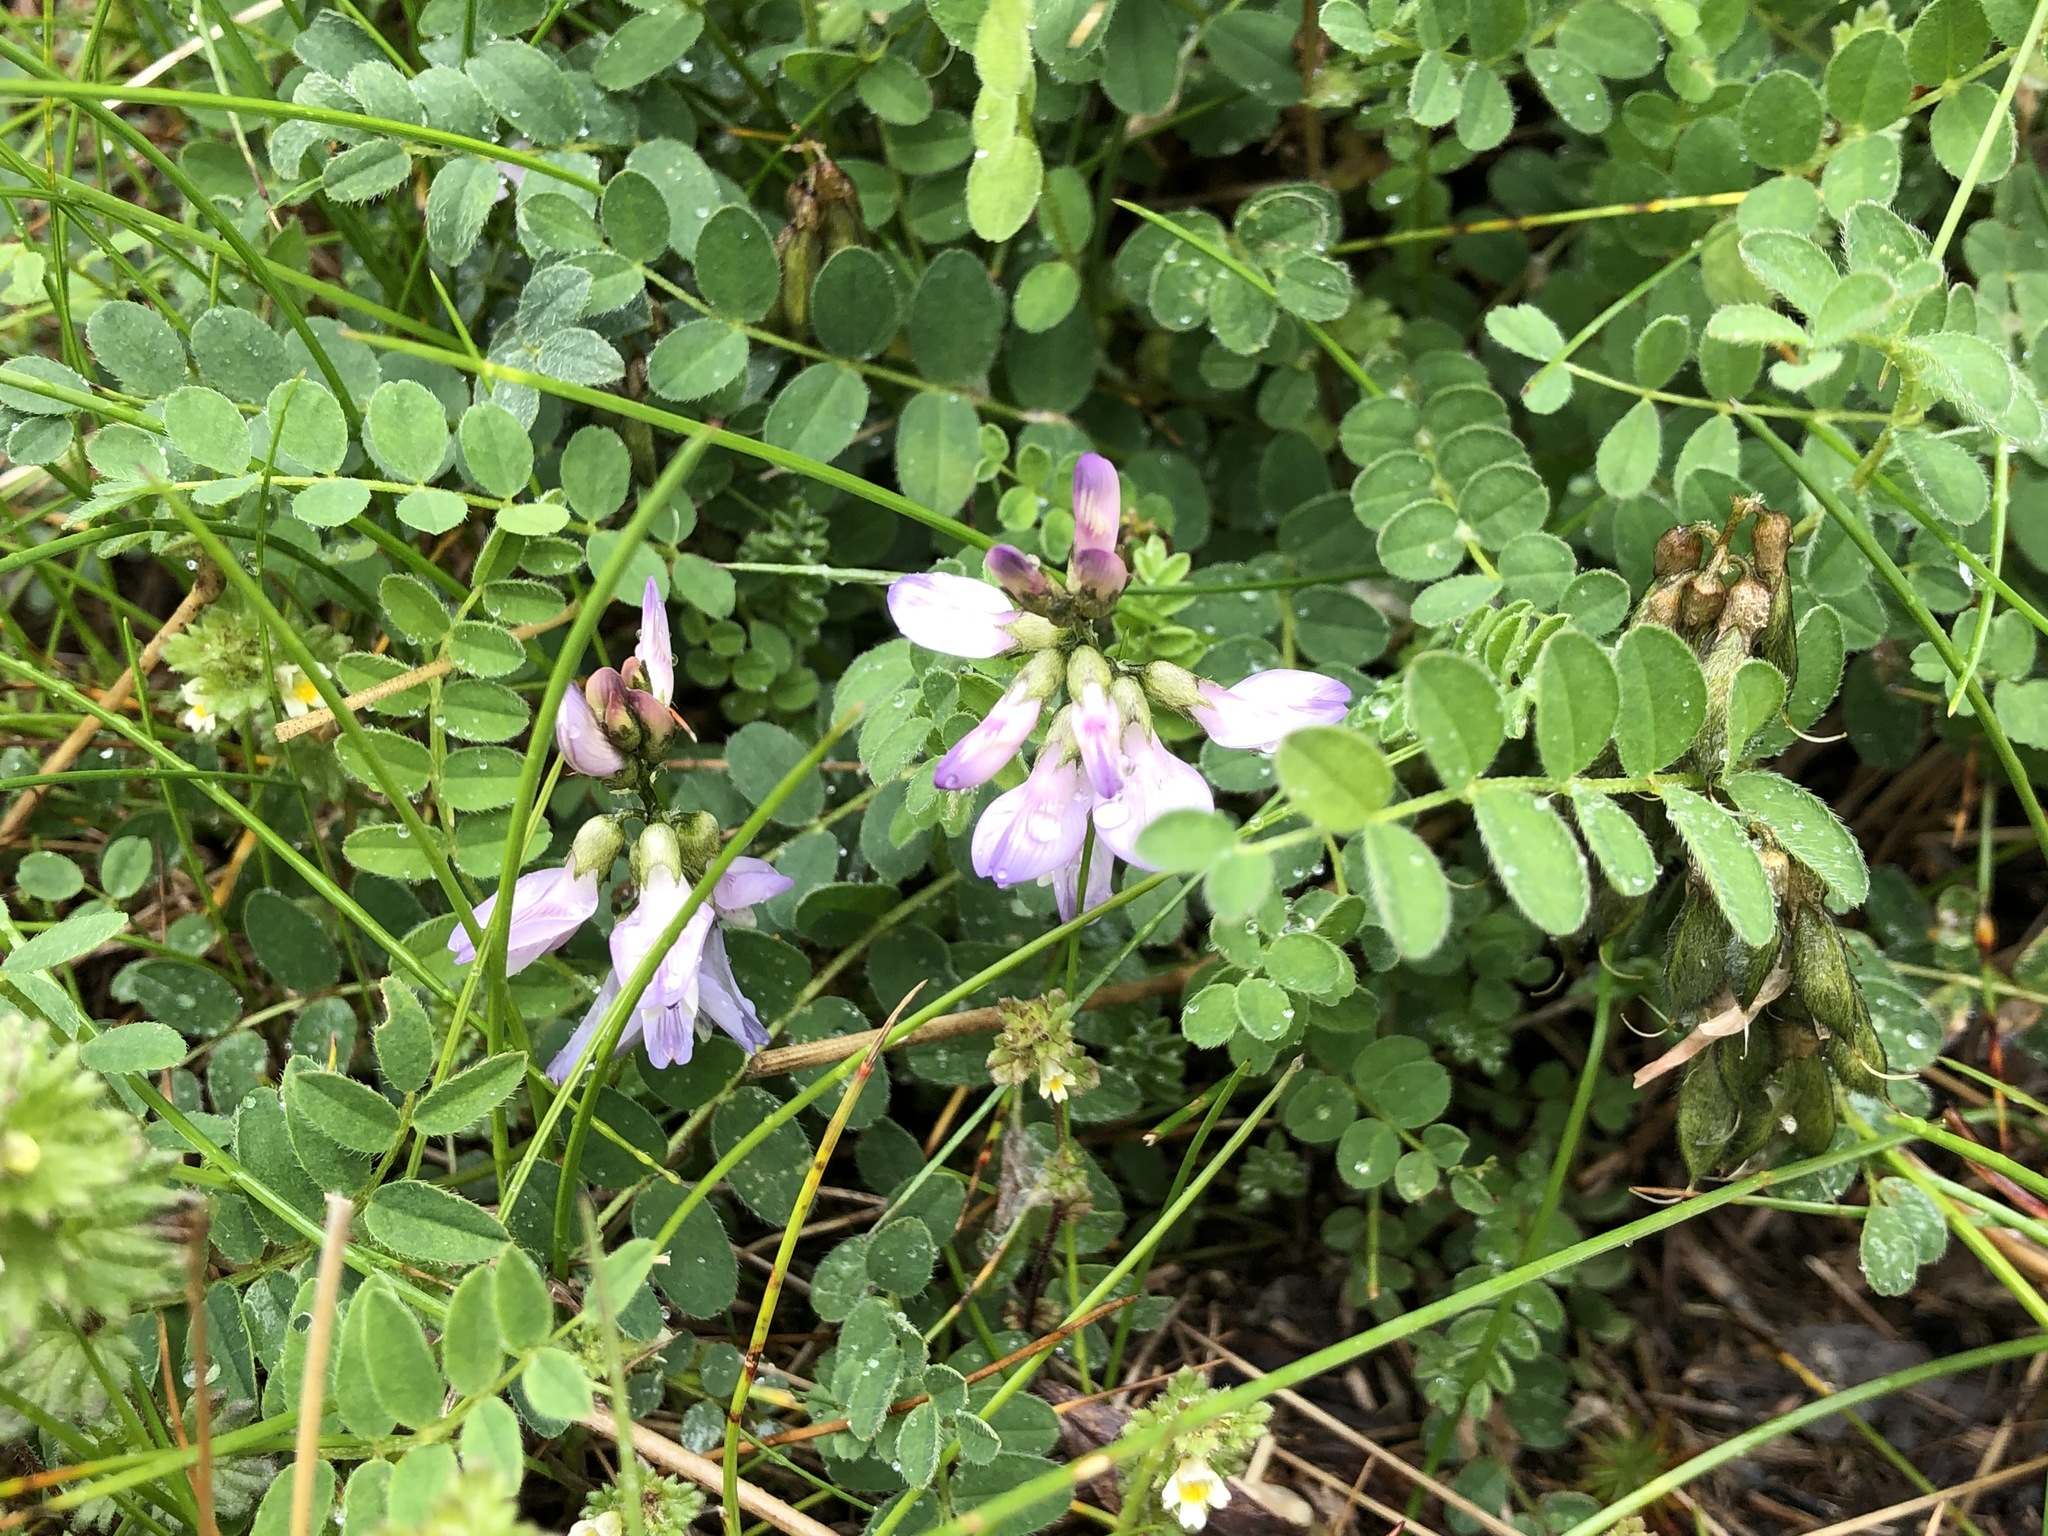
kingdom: Plantae
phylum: Tracheophyta
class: Magnoliopsida
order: Fabales
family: Fabaceae
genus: Astragalus
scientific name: Astragalus alpinus
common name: Alpine milk-vetch
